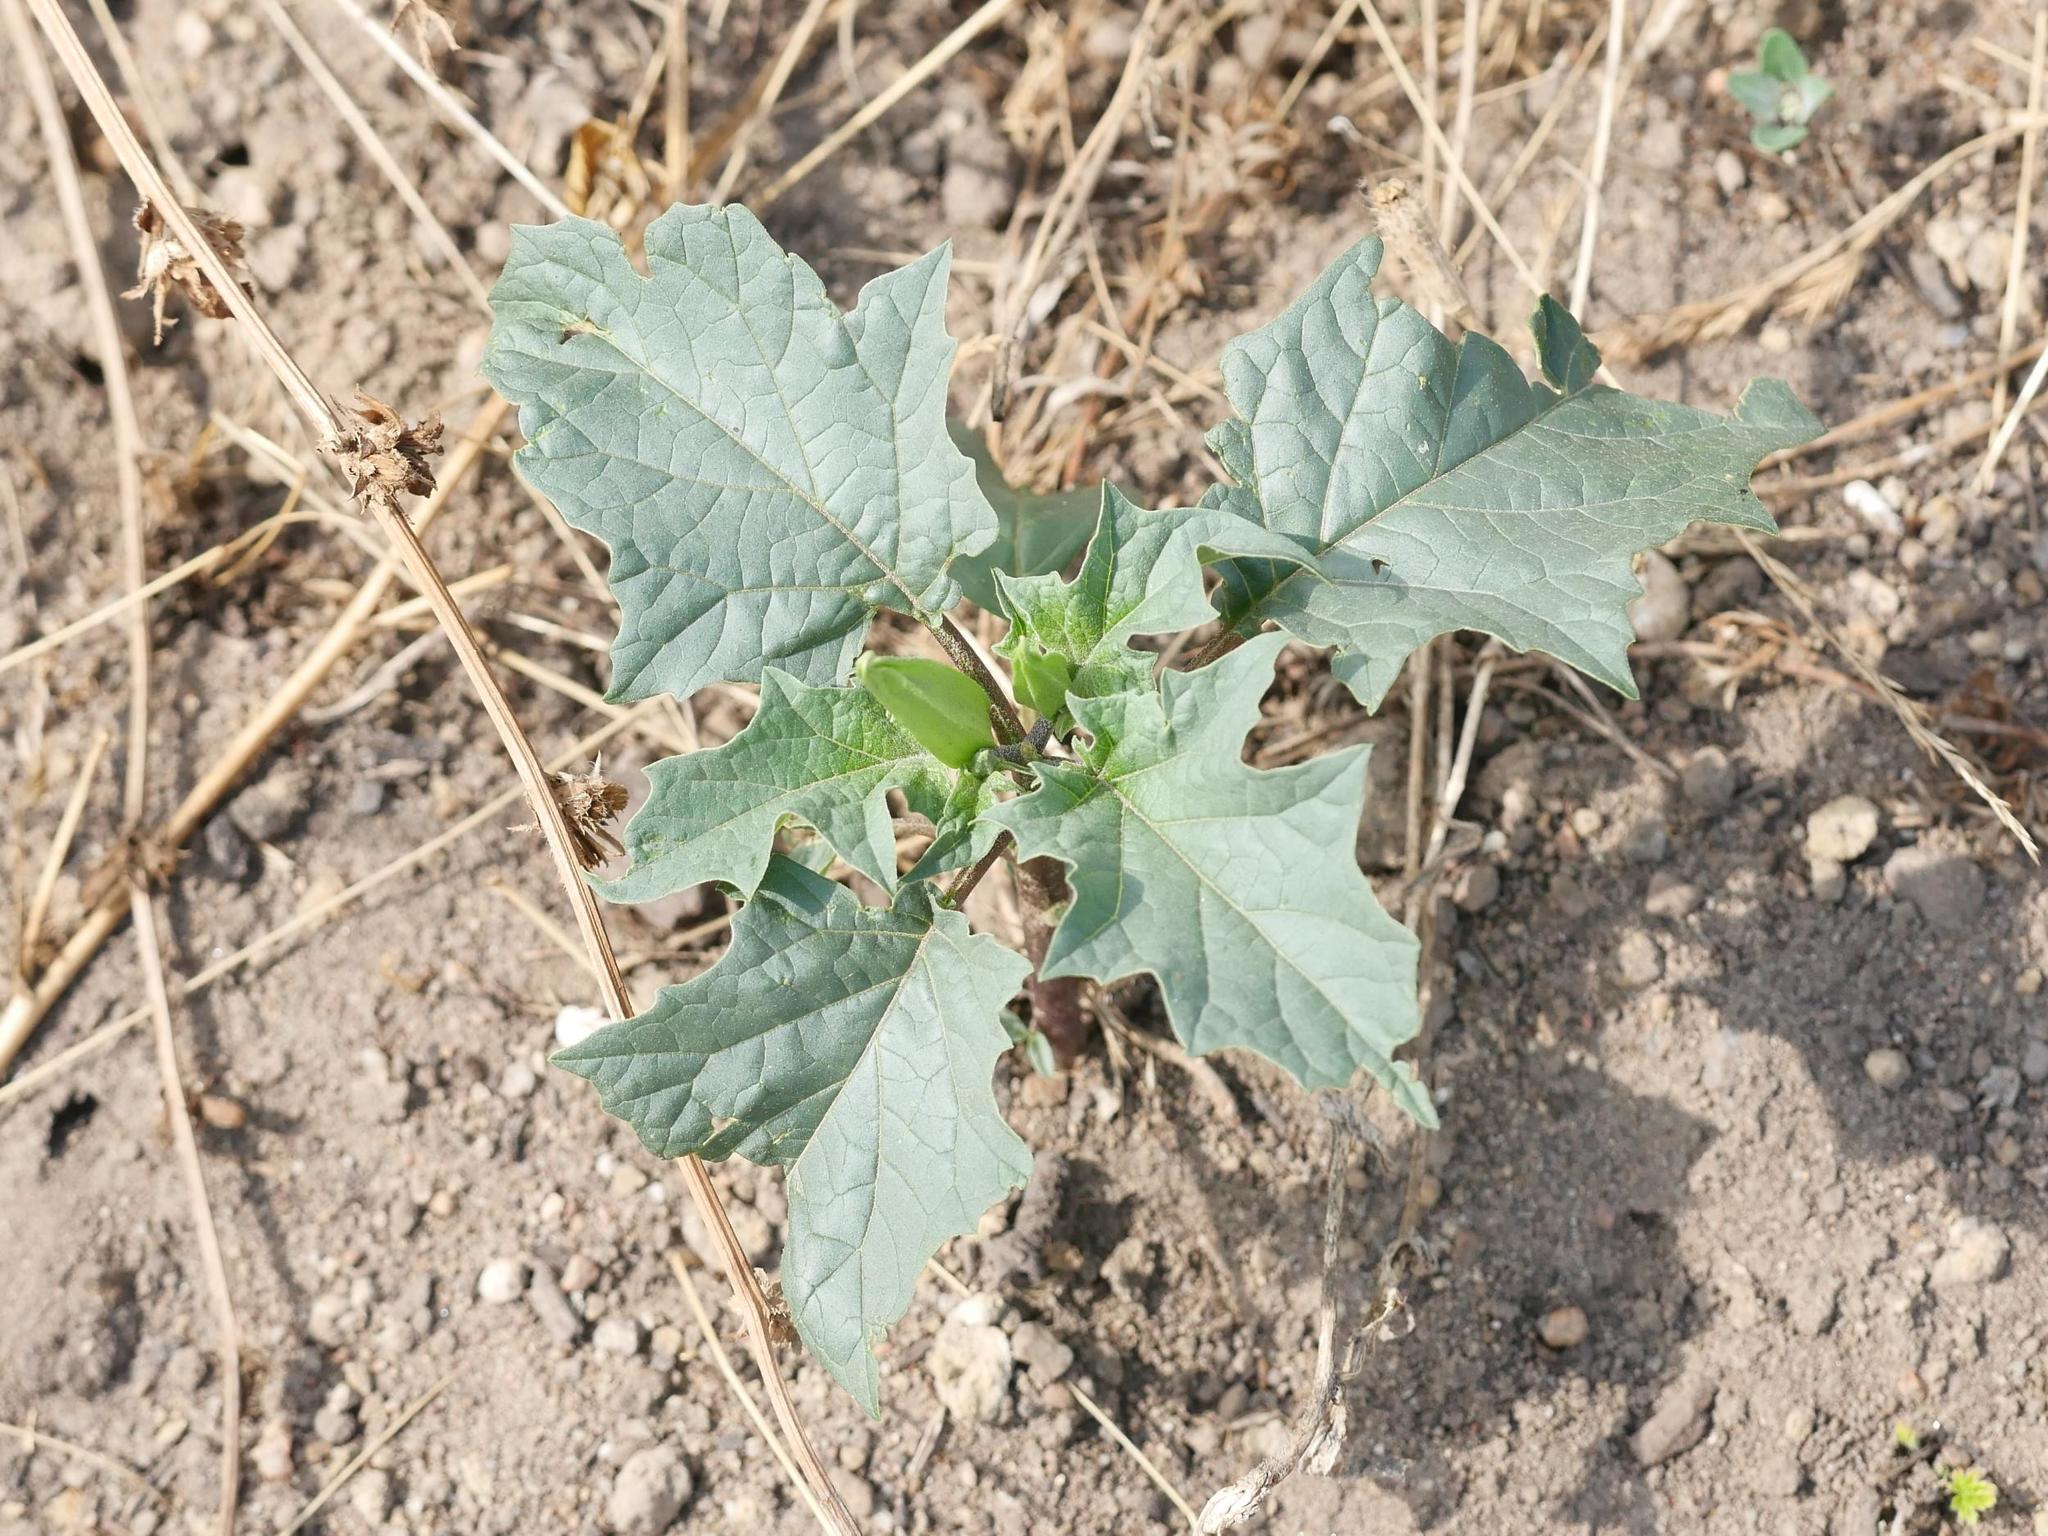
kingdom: Plantae
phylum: Tracheophyta
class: Magnoliopsida
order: Solanales
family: Solanaceae
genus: Datura
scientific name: Datura stramonium
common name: Thorn-apple
